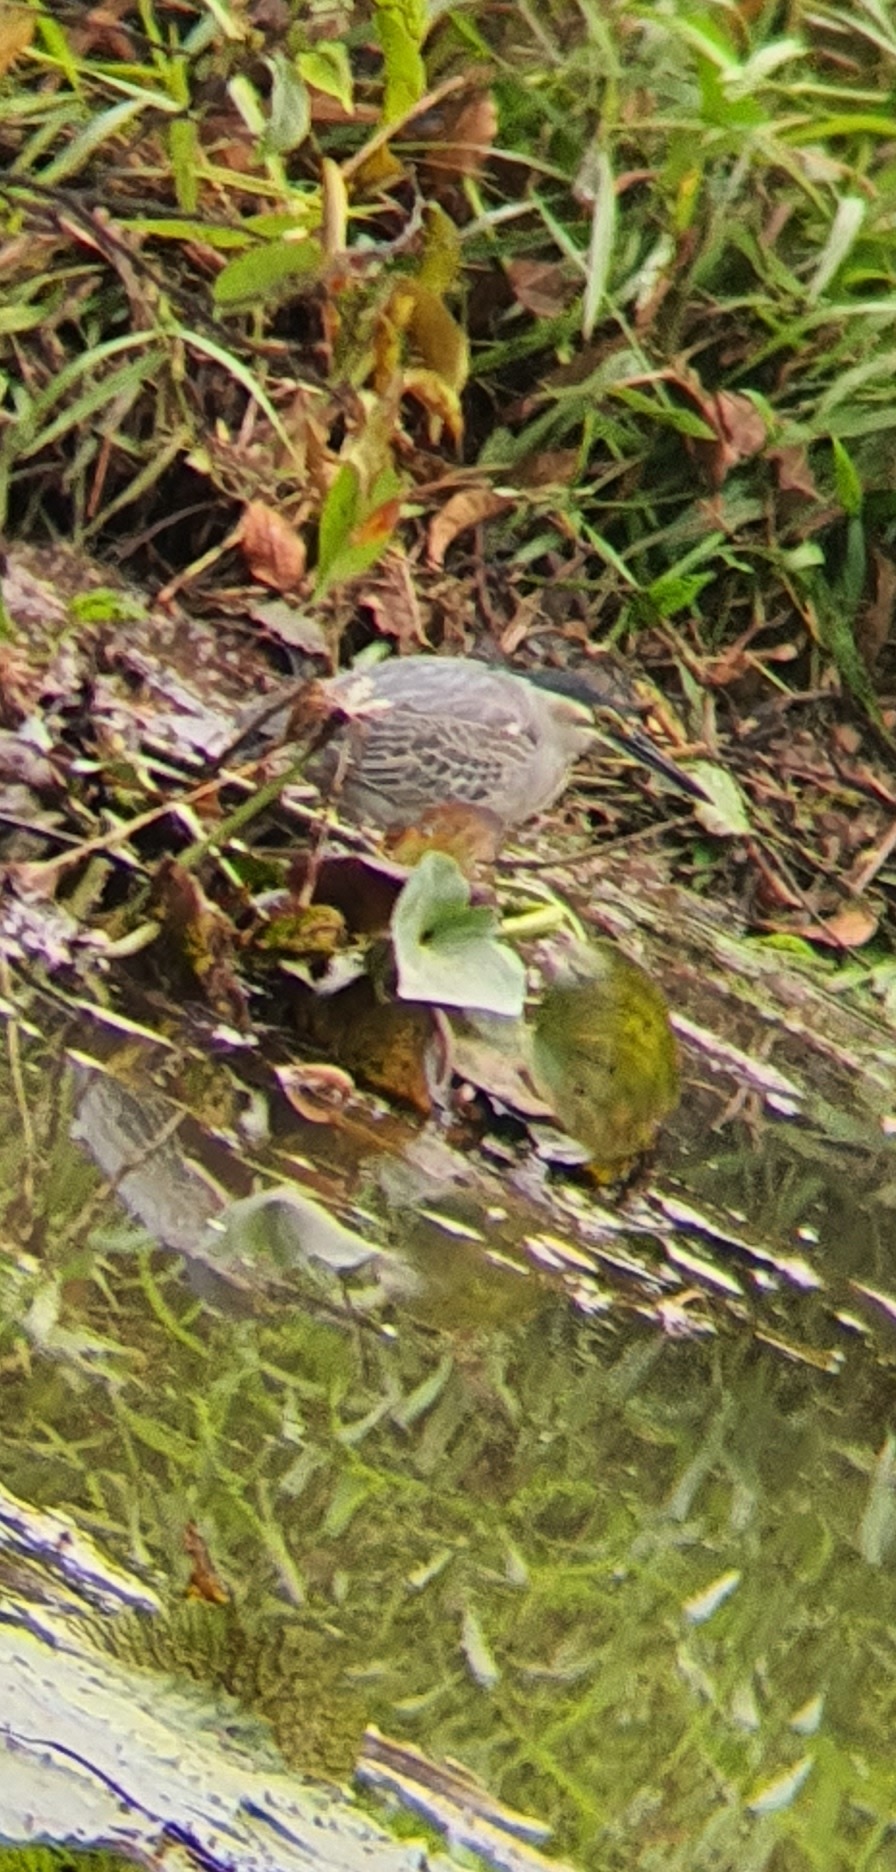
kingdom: Animalia
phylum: Chordata
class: Aves
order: Pelecaniformes
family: Ardeidae
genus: Butorides
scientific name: Butorides striata
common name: Striated heron
